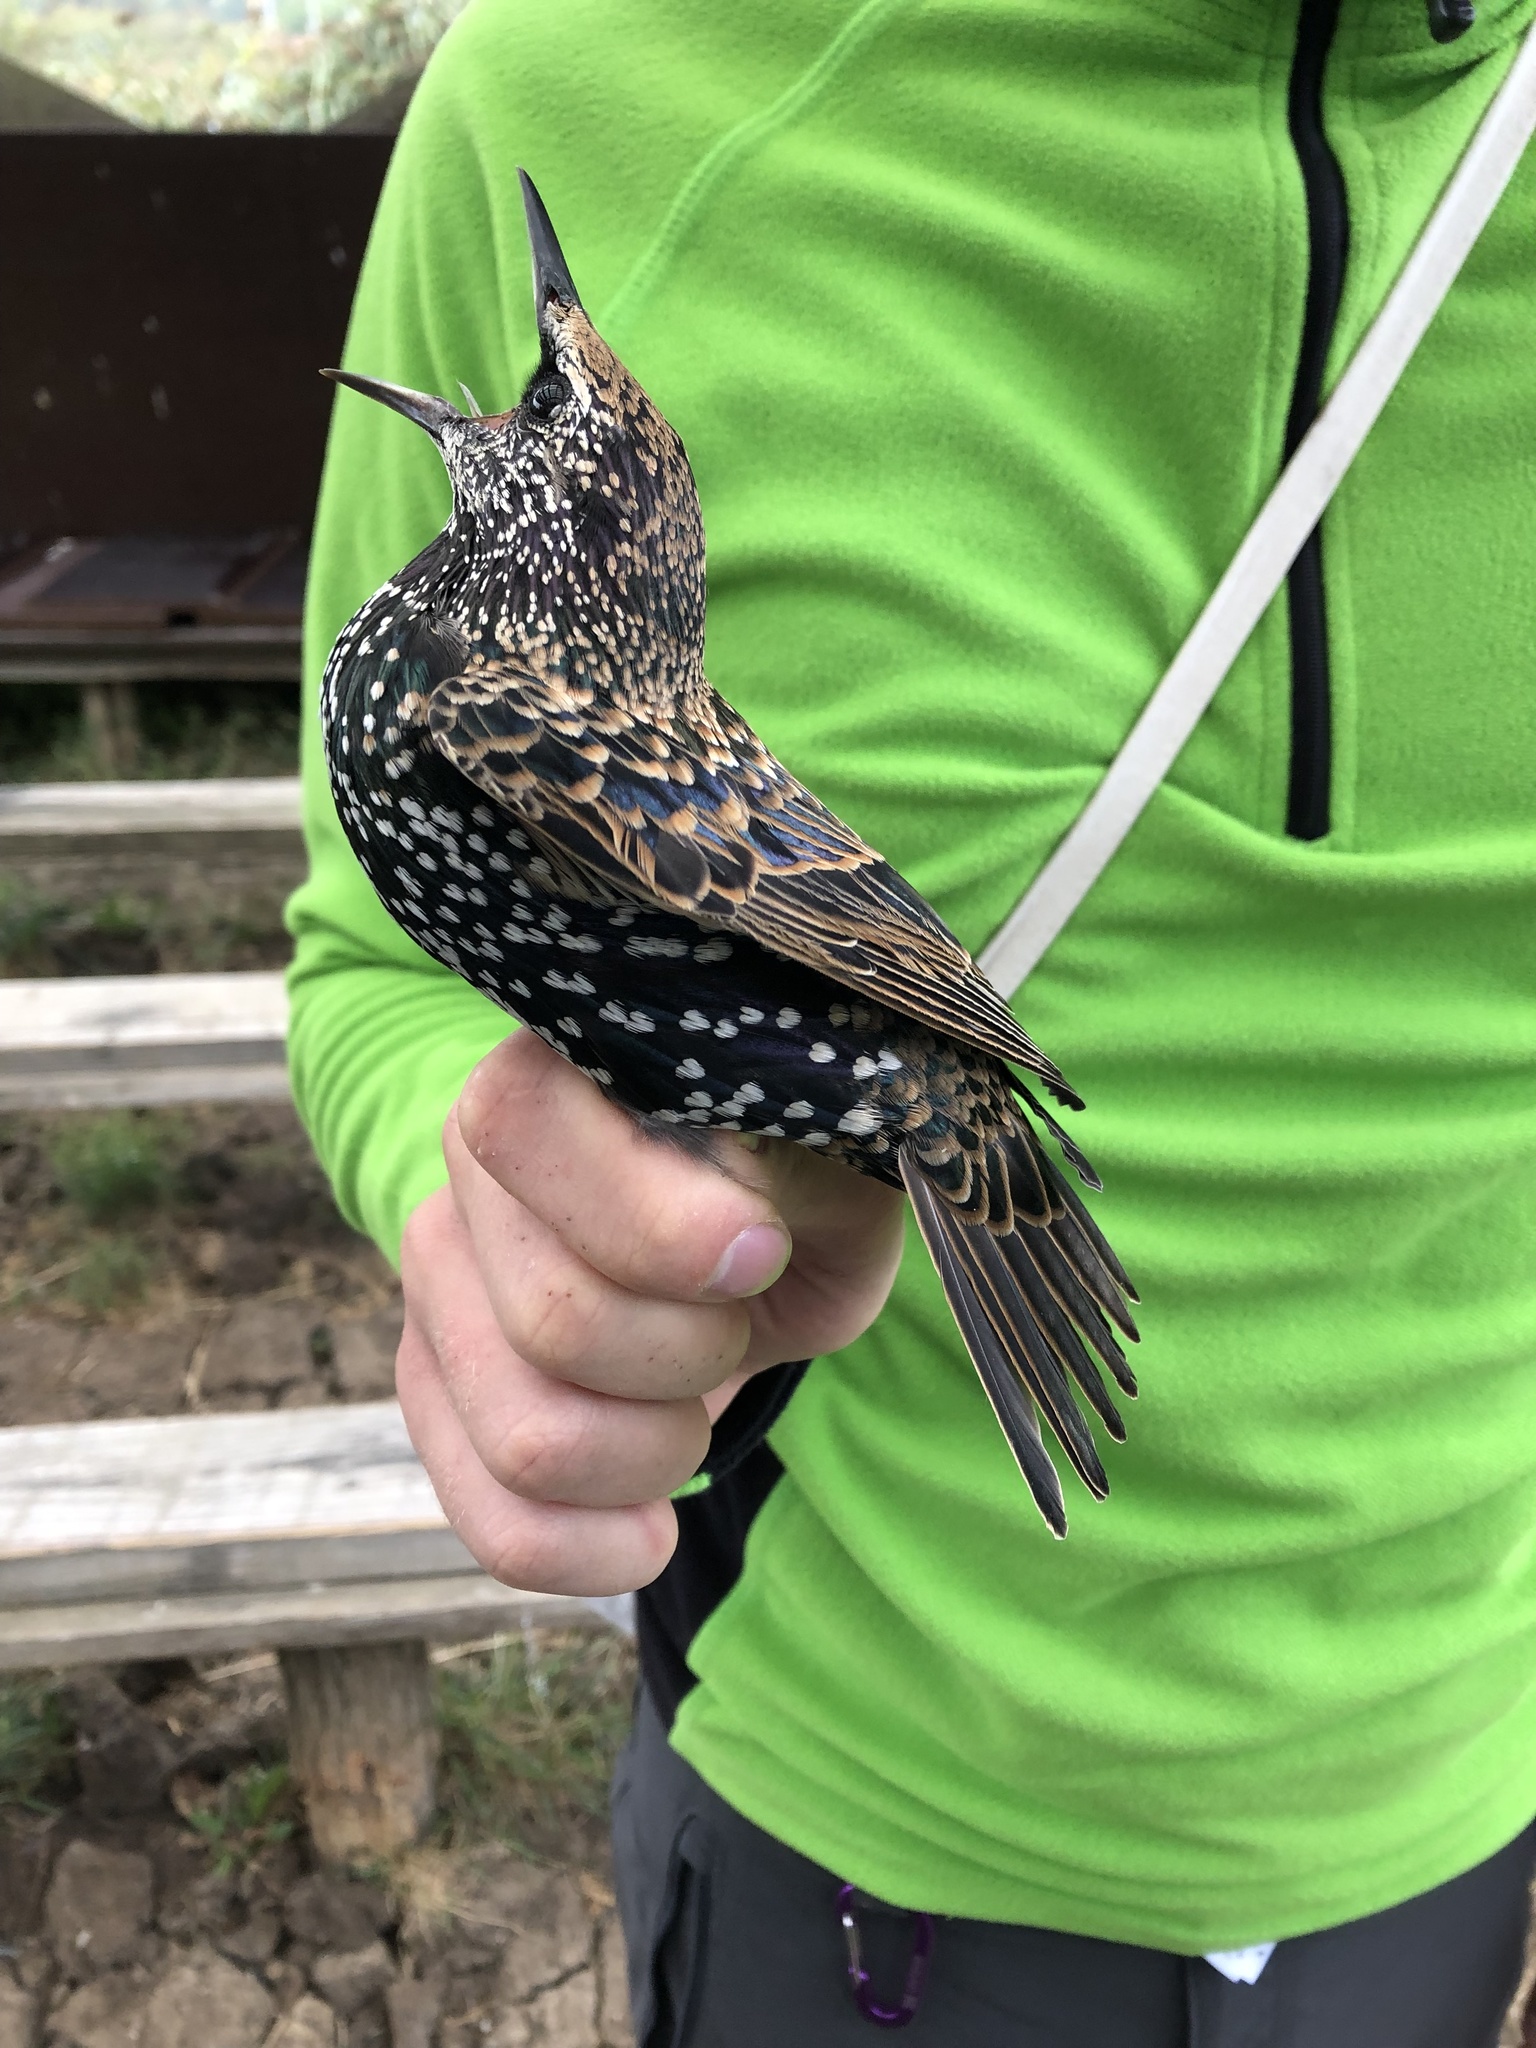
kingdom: Animalia
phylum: Chordata
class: Aves
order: Passeriformes
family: Sturnidae
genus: Sturnus
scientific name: Sturnus vulgaris
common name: Common starling
